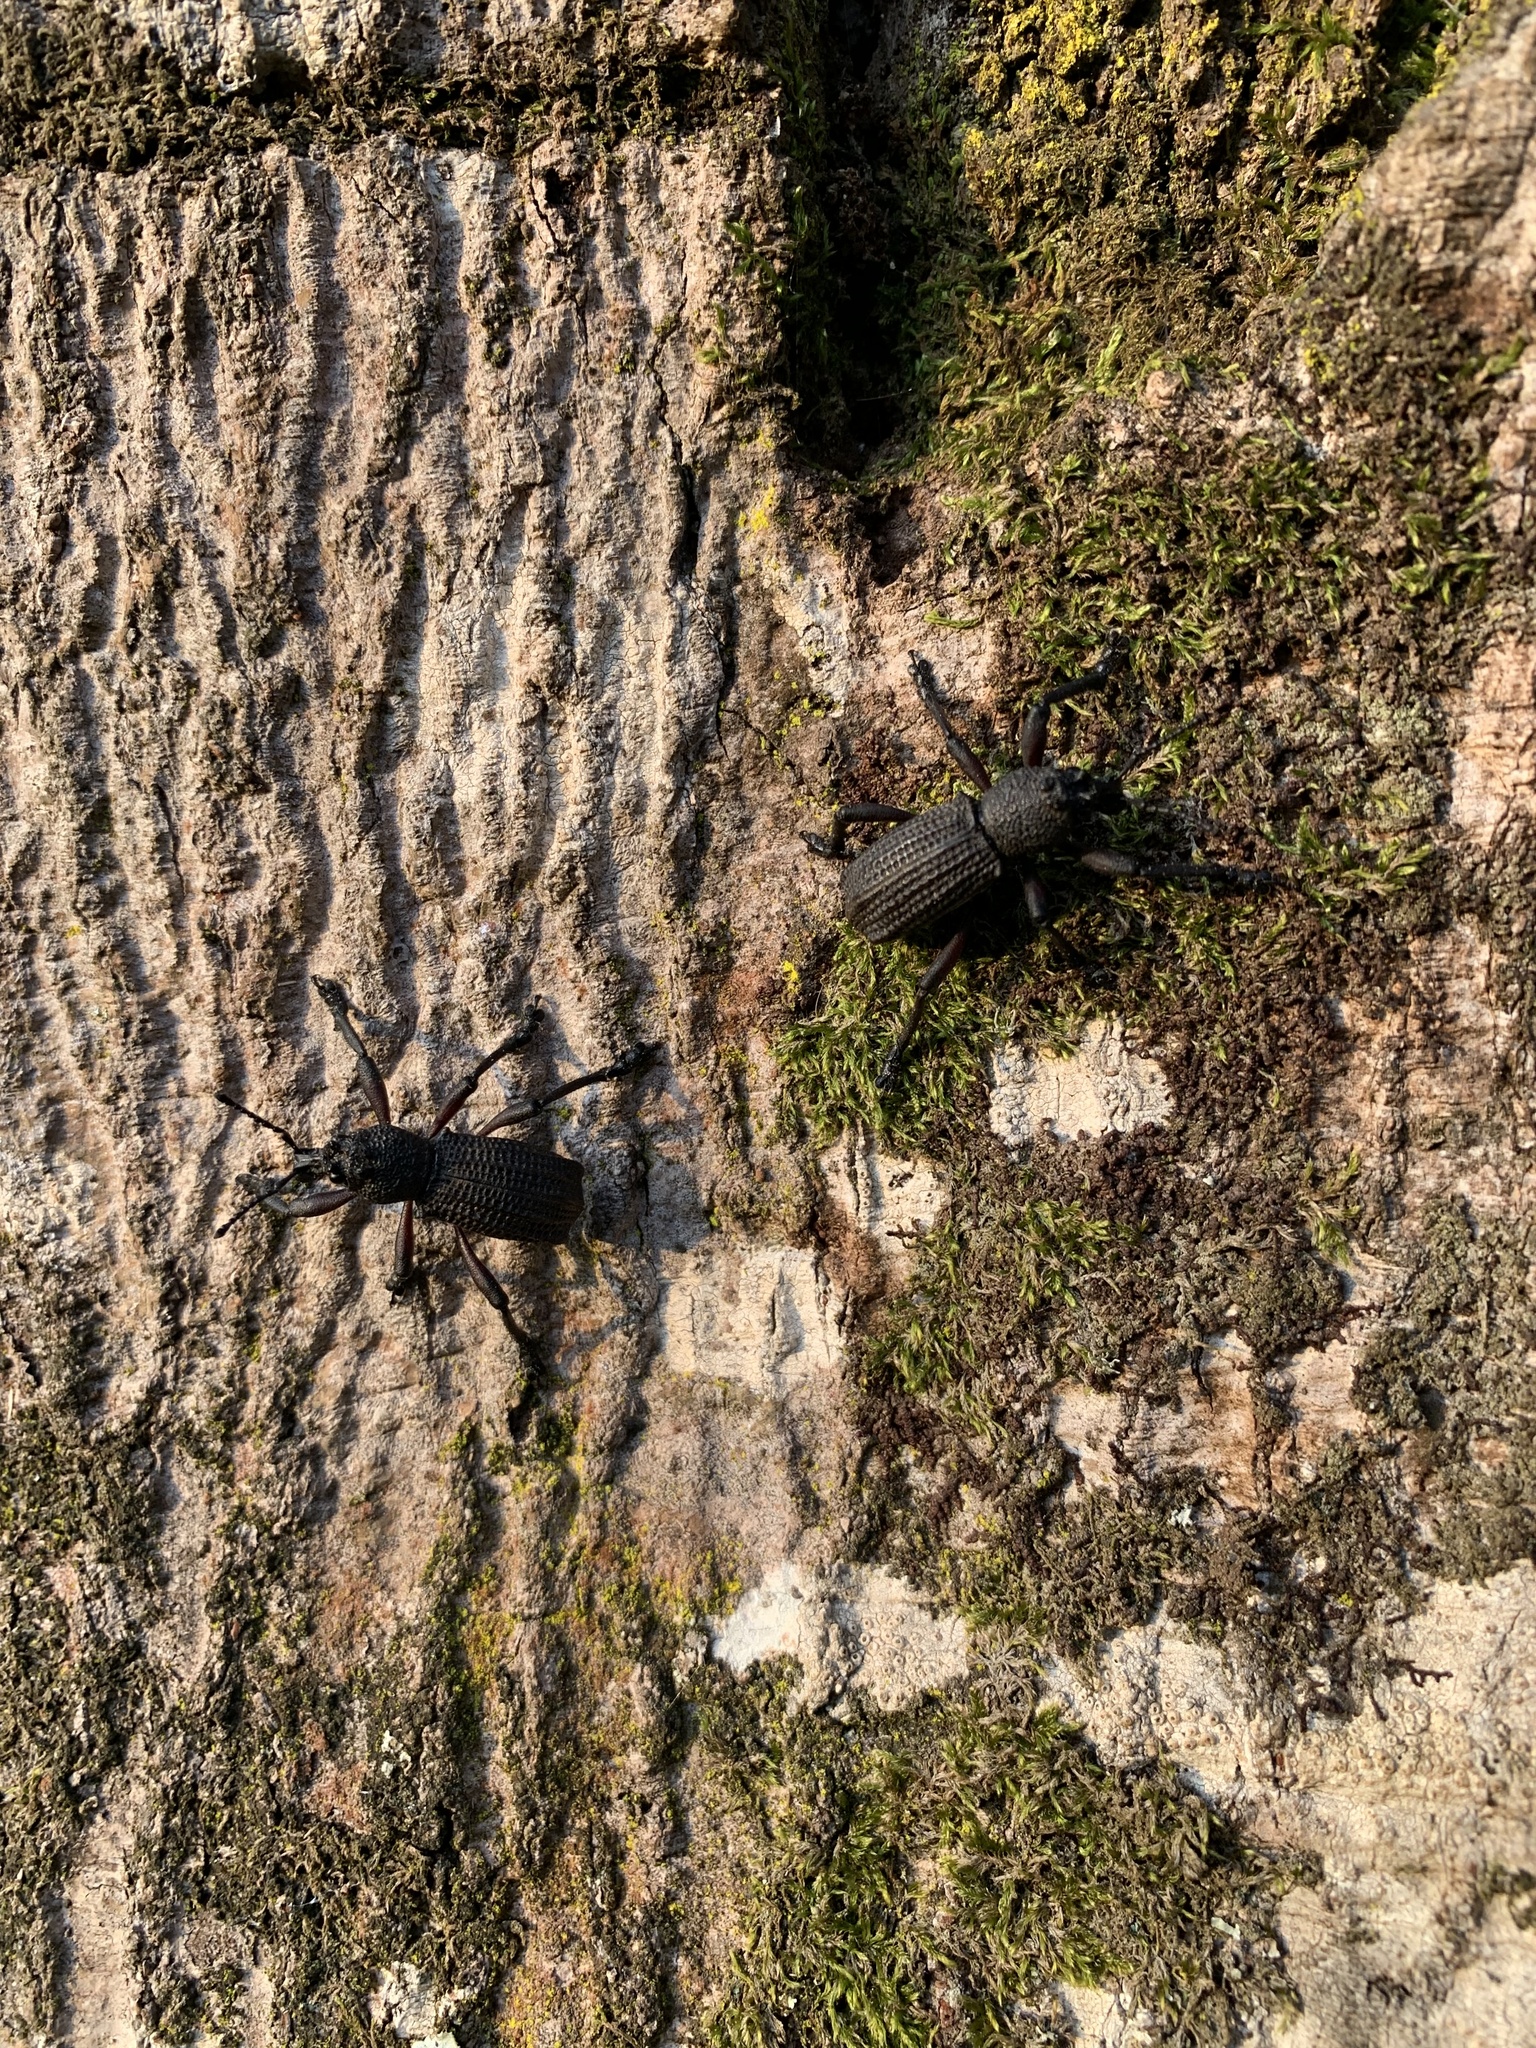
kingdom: Animalia
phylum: Arthropoda
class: Insecta
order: Coleoptera
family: Curculionidae
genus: Aegorhinus
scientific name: Aegorhinus
